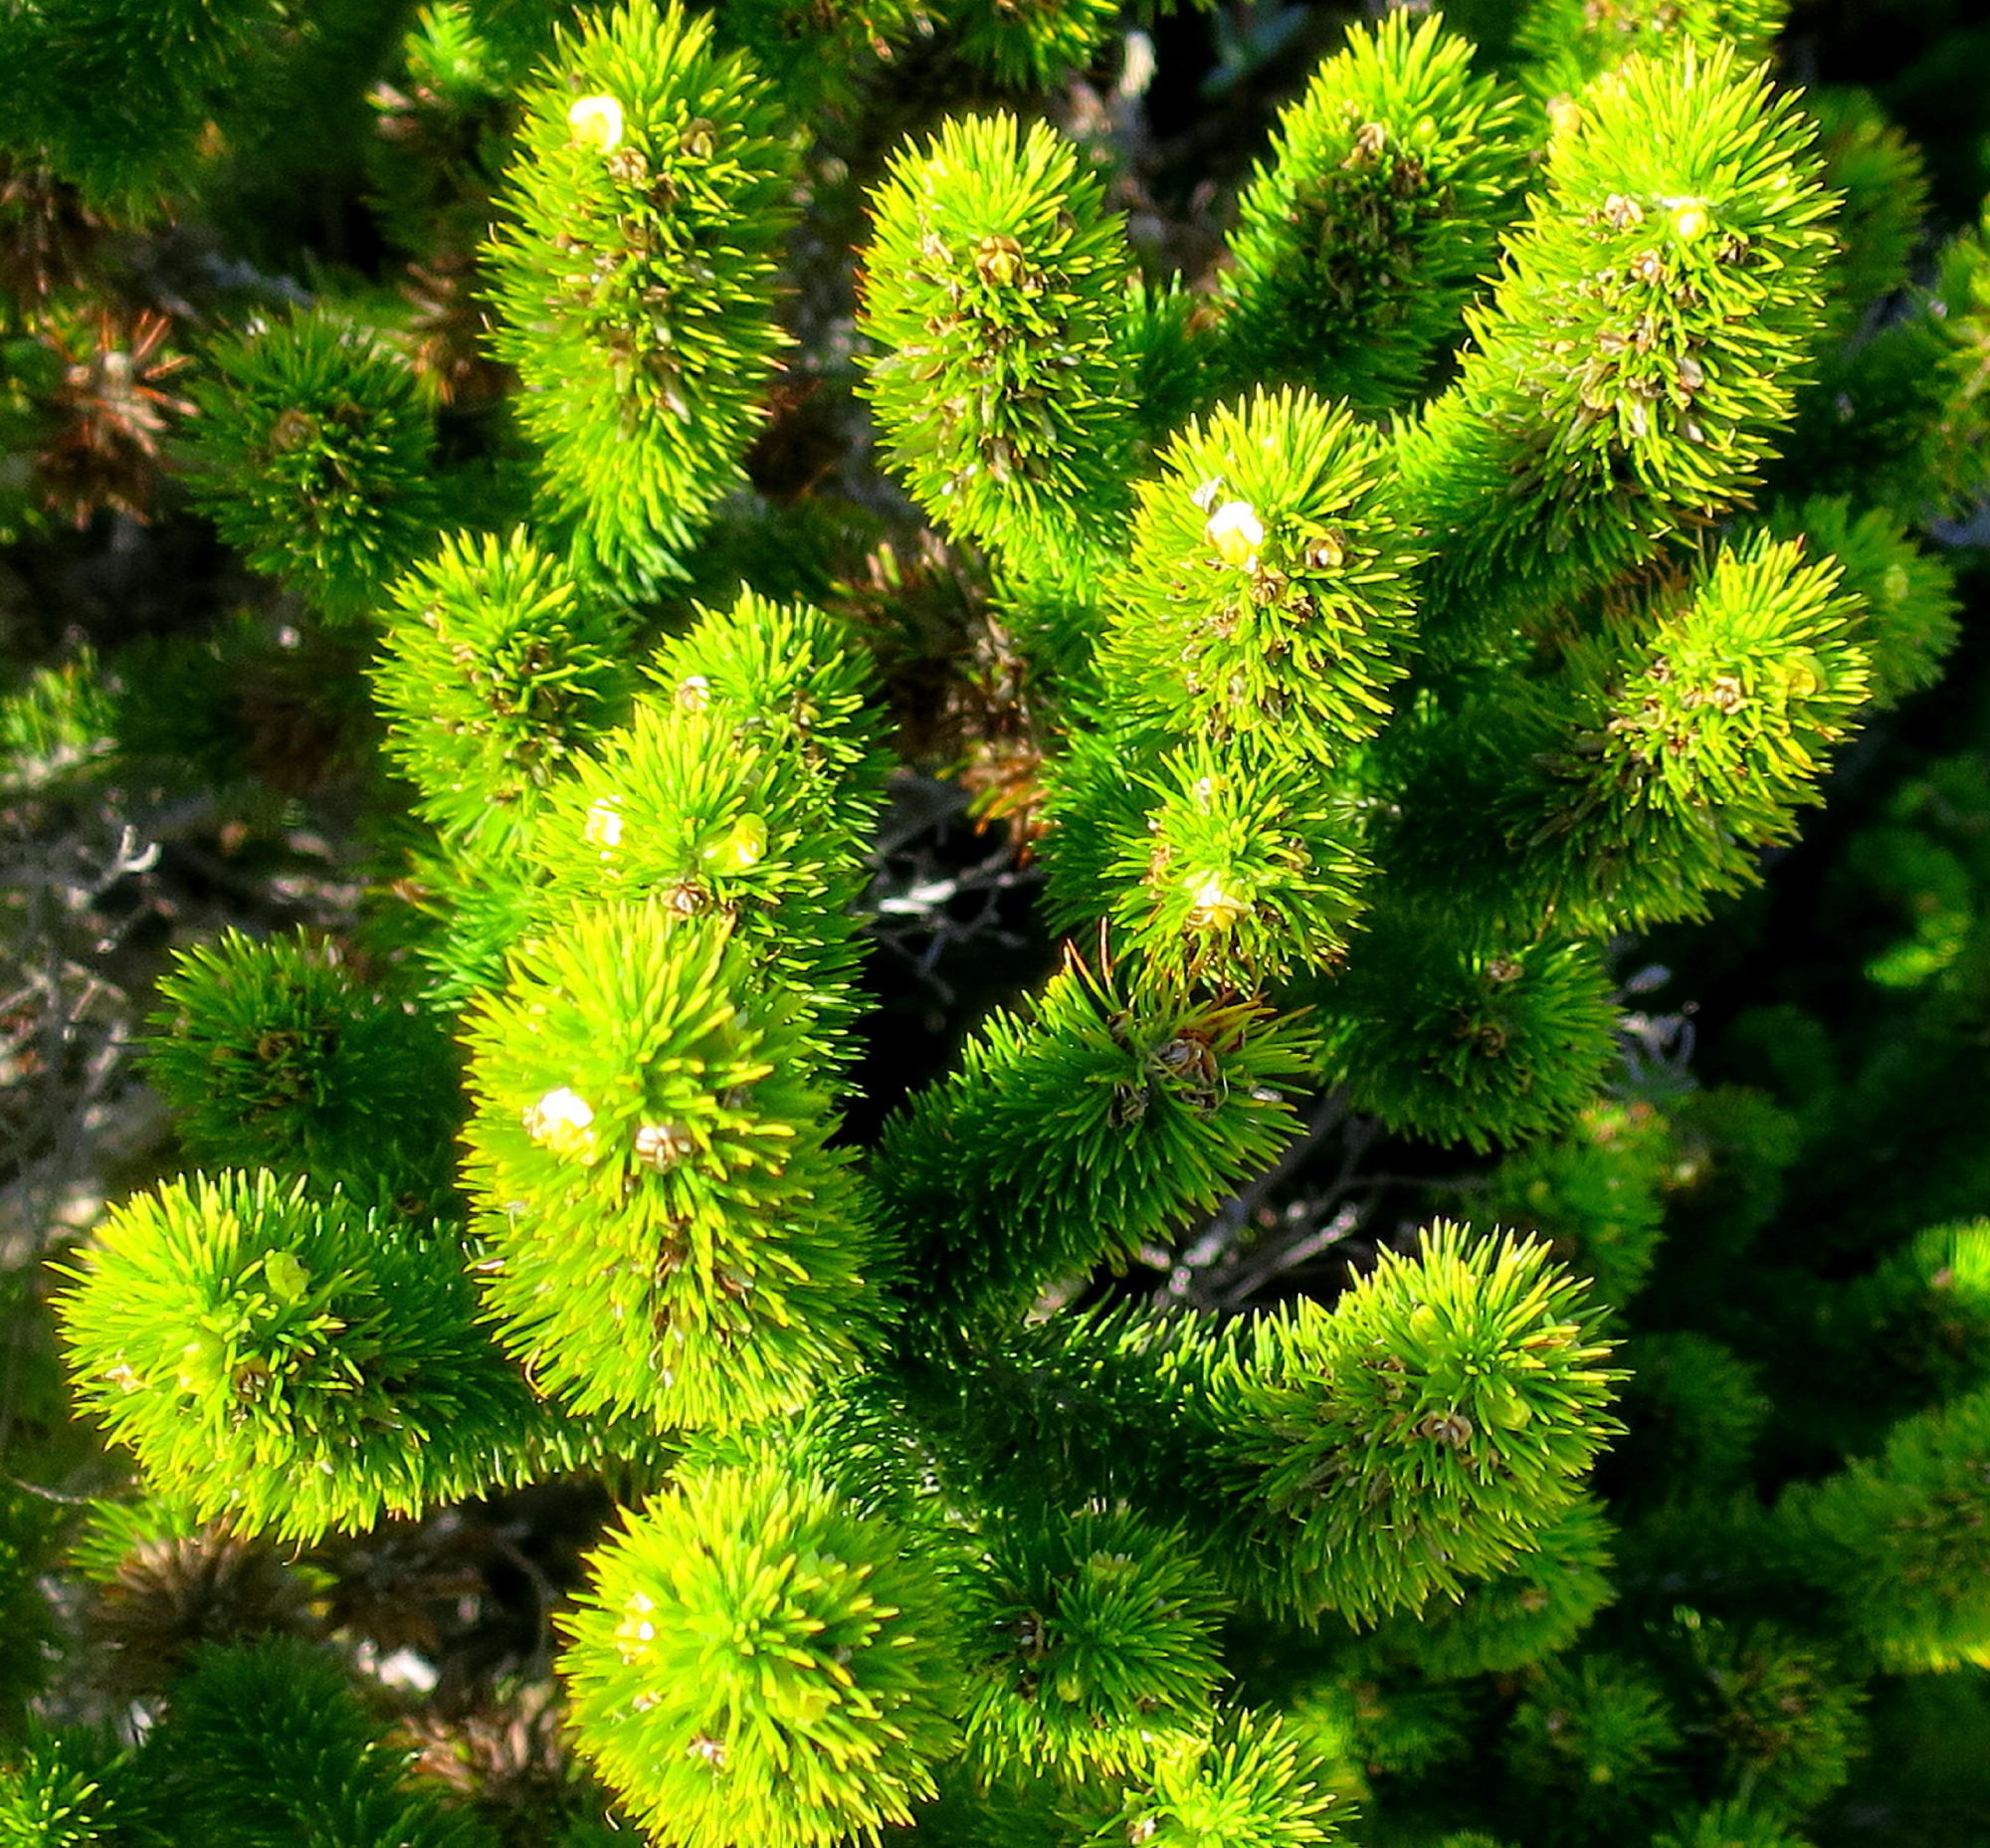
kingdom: Plantae
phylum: Tracheophyta
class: Magnoliopsida
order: Fabales
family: Fabaceae
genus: Aspalathus
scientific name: Aspalathus alopecurus
